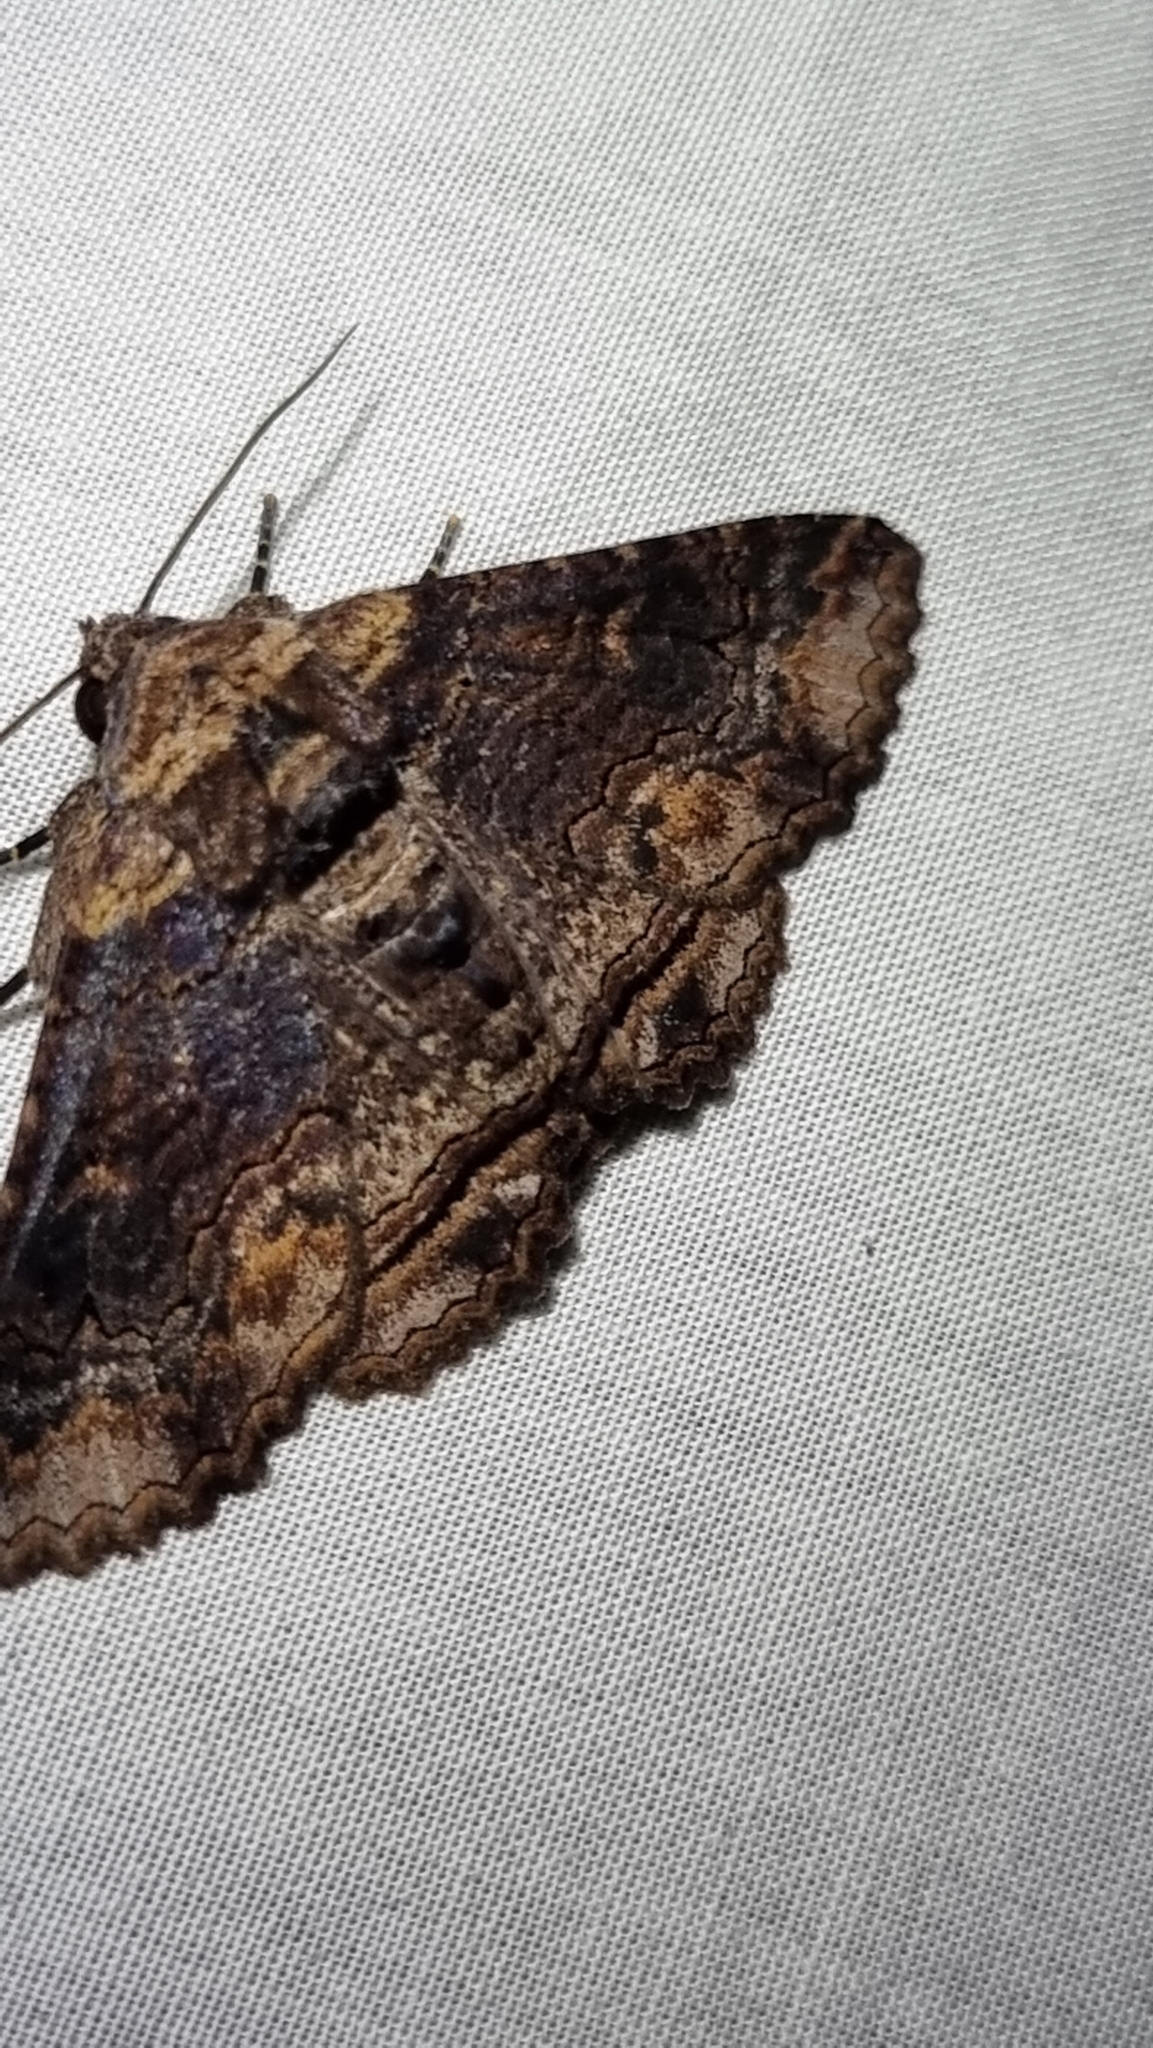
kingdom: Animalia
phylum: Arthropoda
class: Insecta
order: Lepidoptera
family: Erebidae
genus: Pericyma
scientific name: Pericyma cruegeri
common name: Poinciana looper
